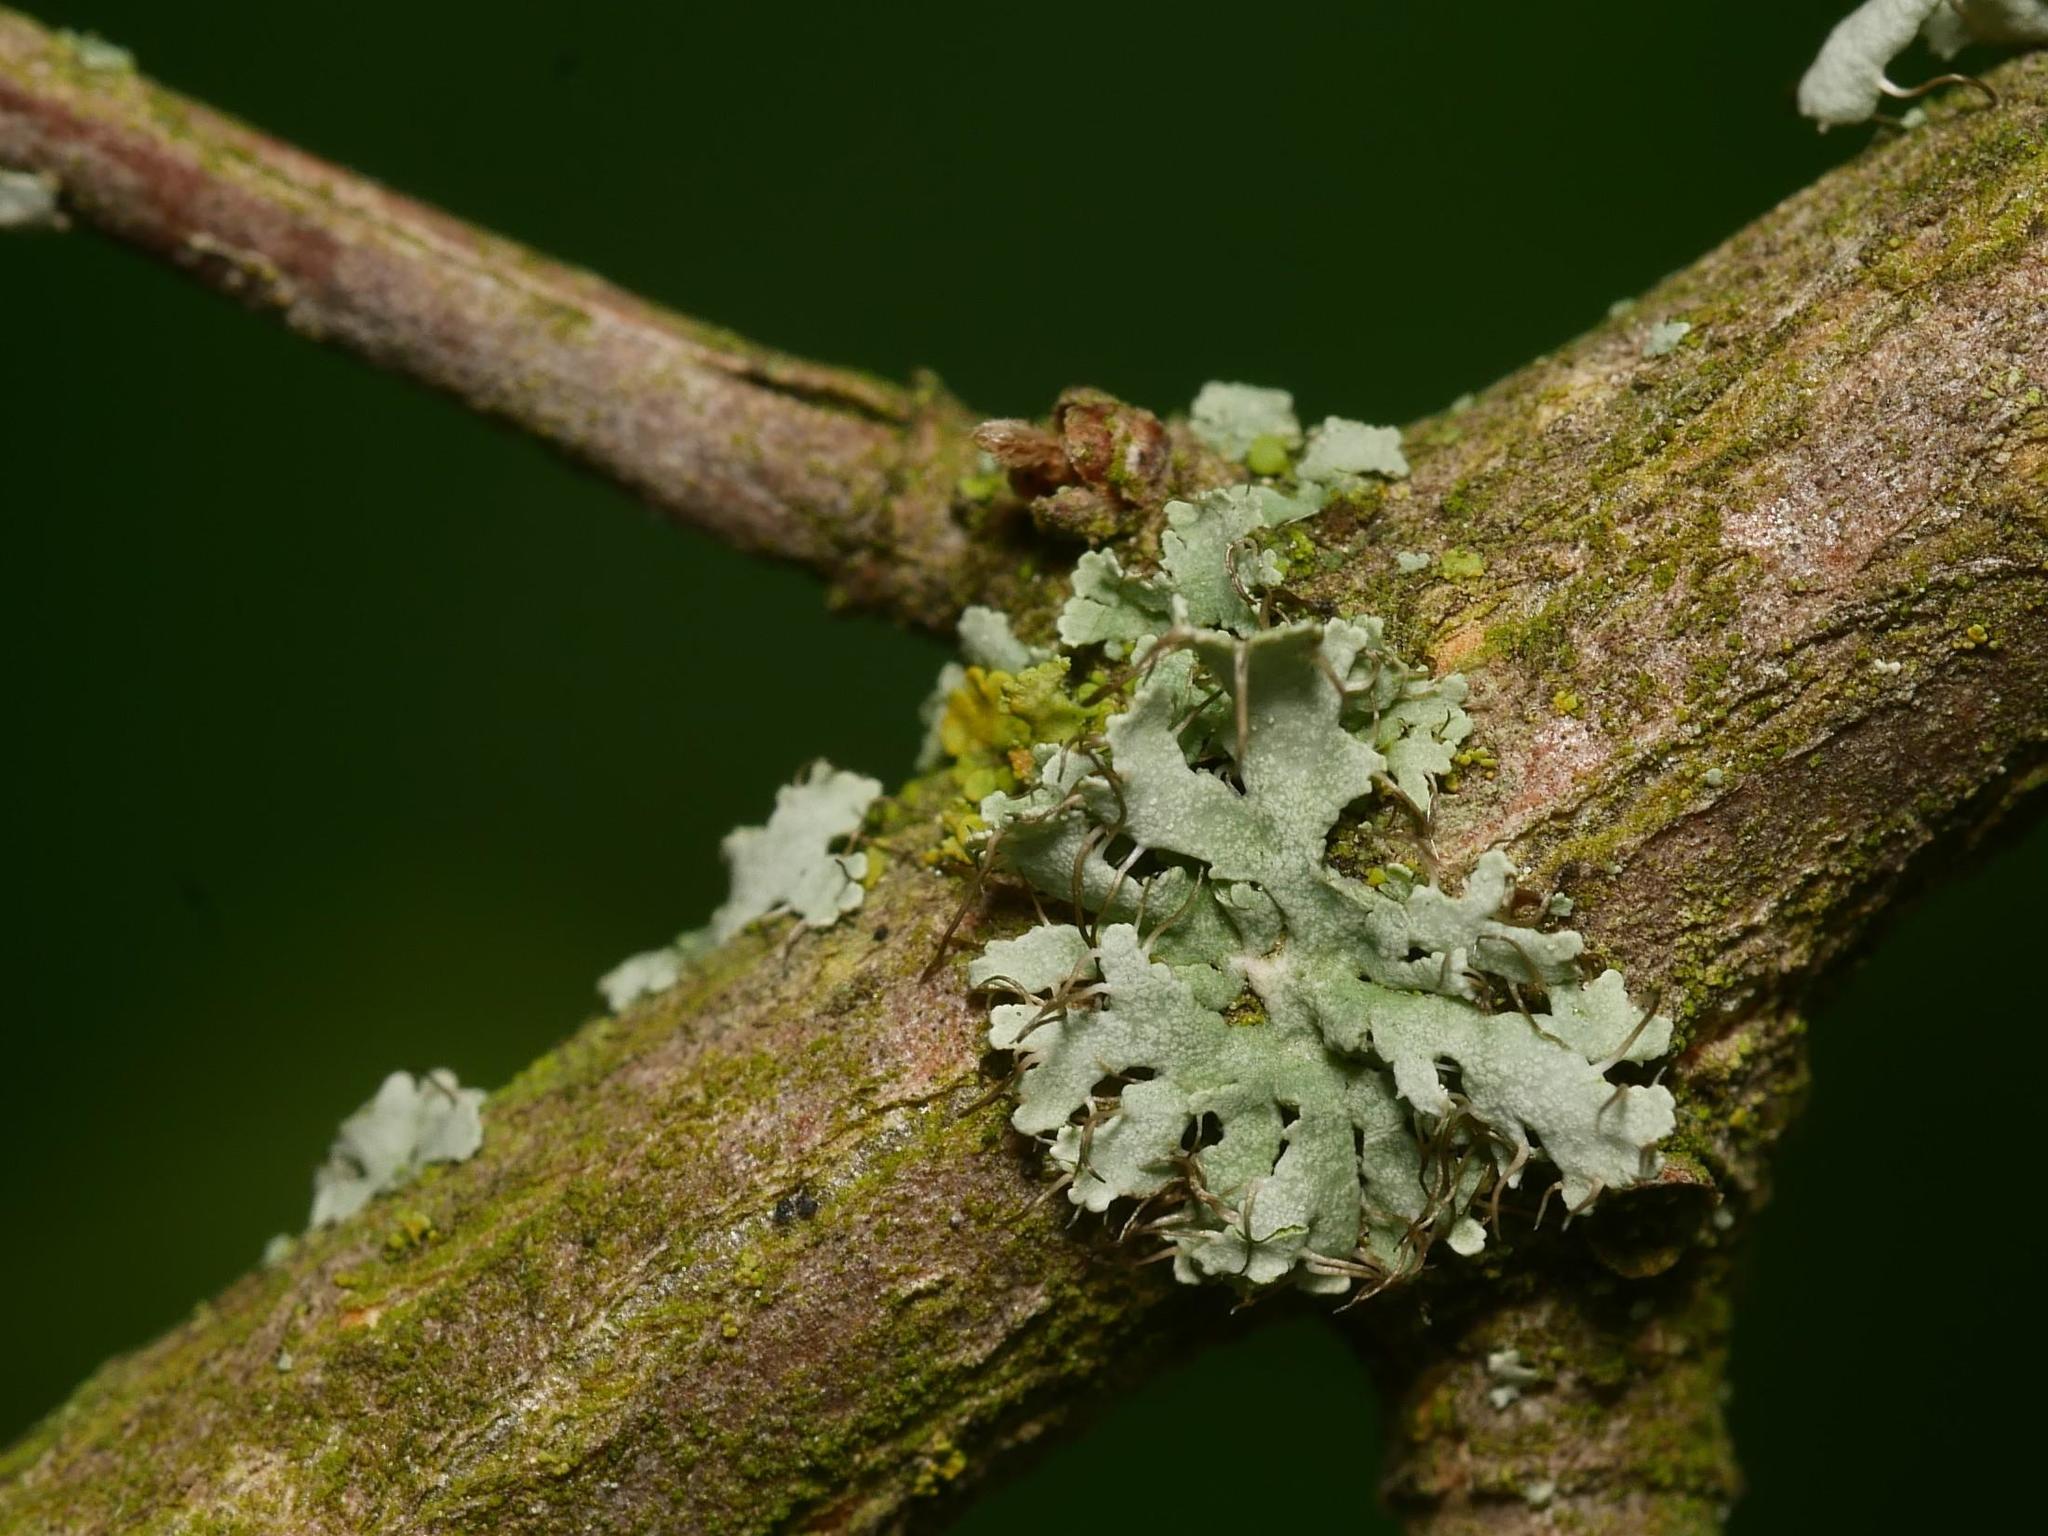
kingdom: Fungi
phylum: Ascomycota
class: Lecanoromycetes
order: Caliciales
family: Physciaceae
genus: Physcia
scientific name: Physcia adscendens
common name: Hooded rosette lichen
